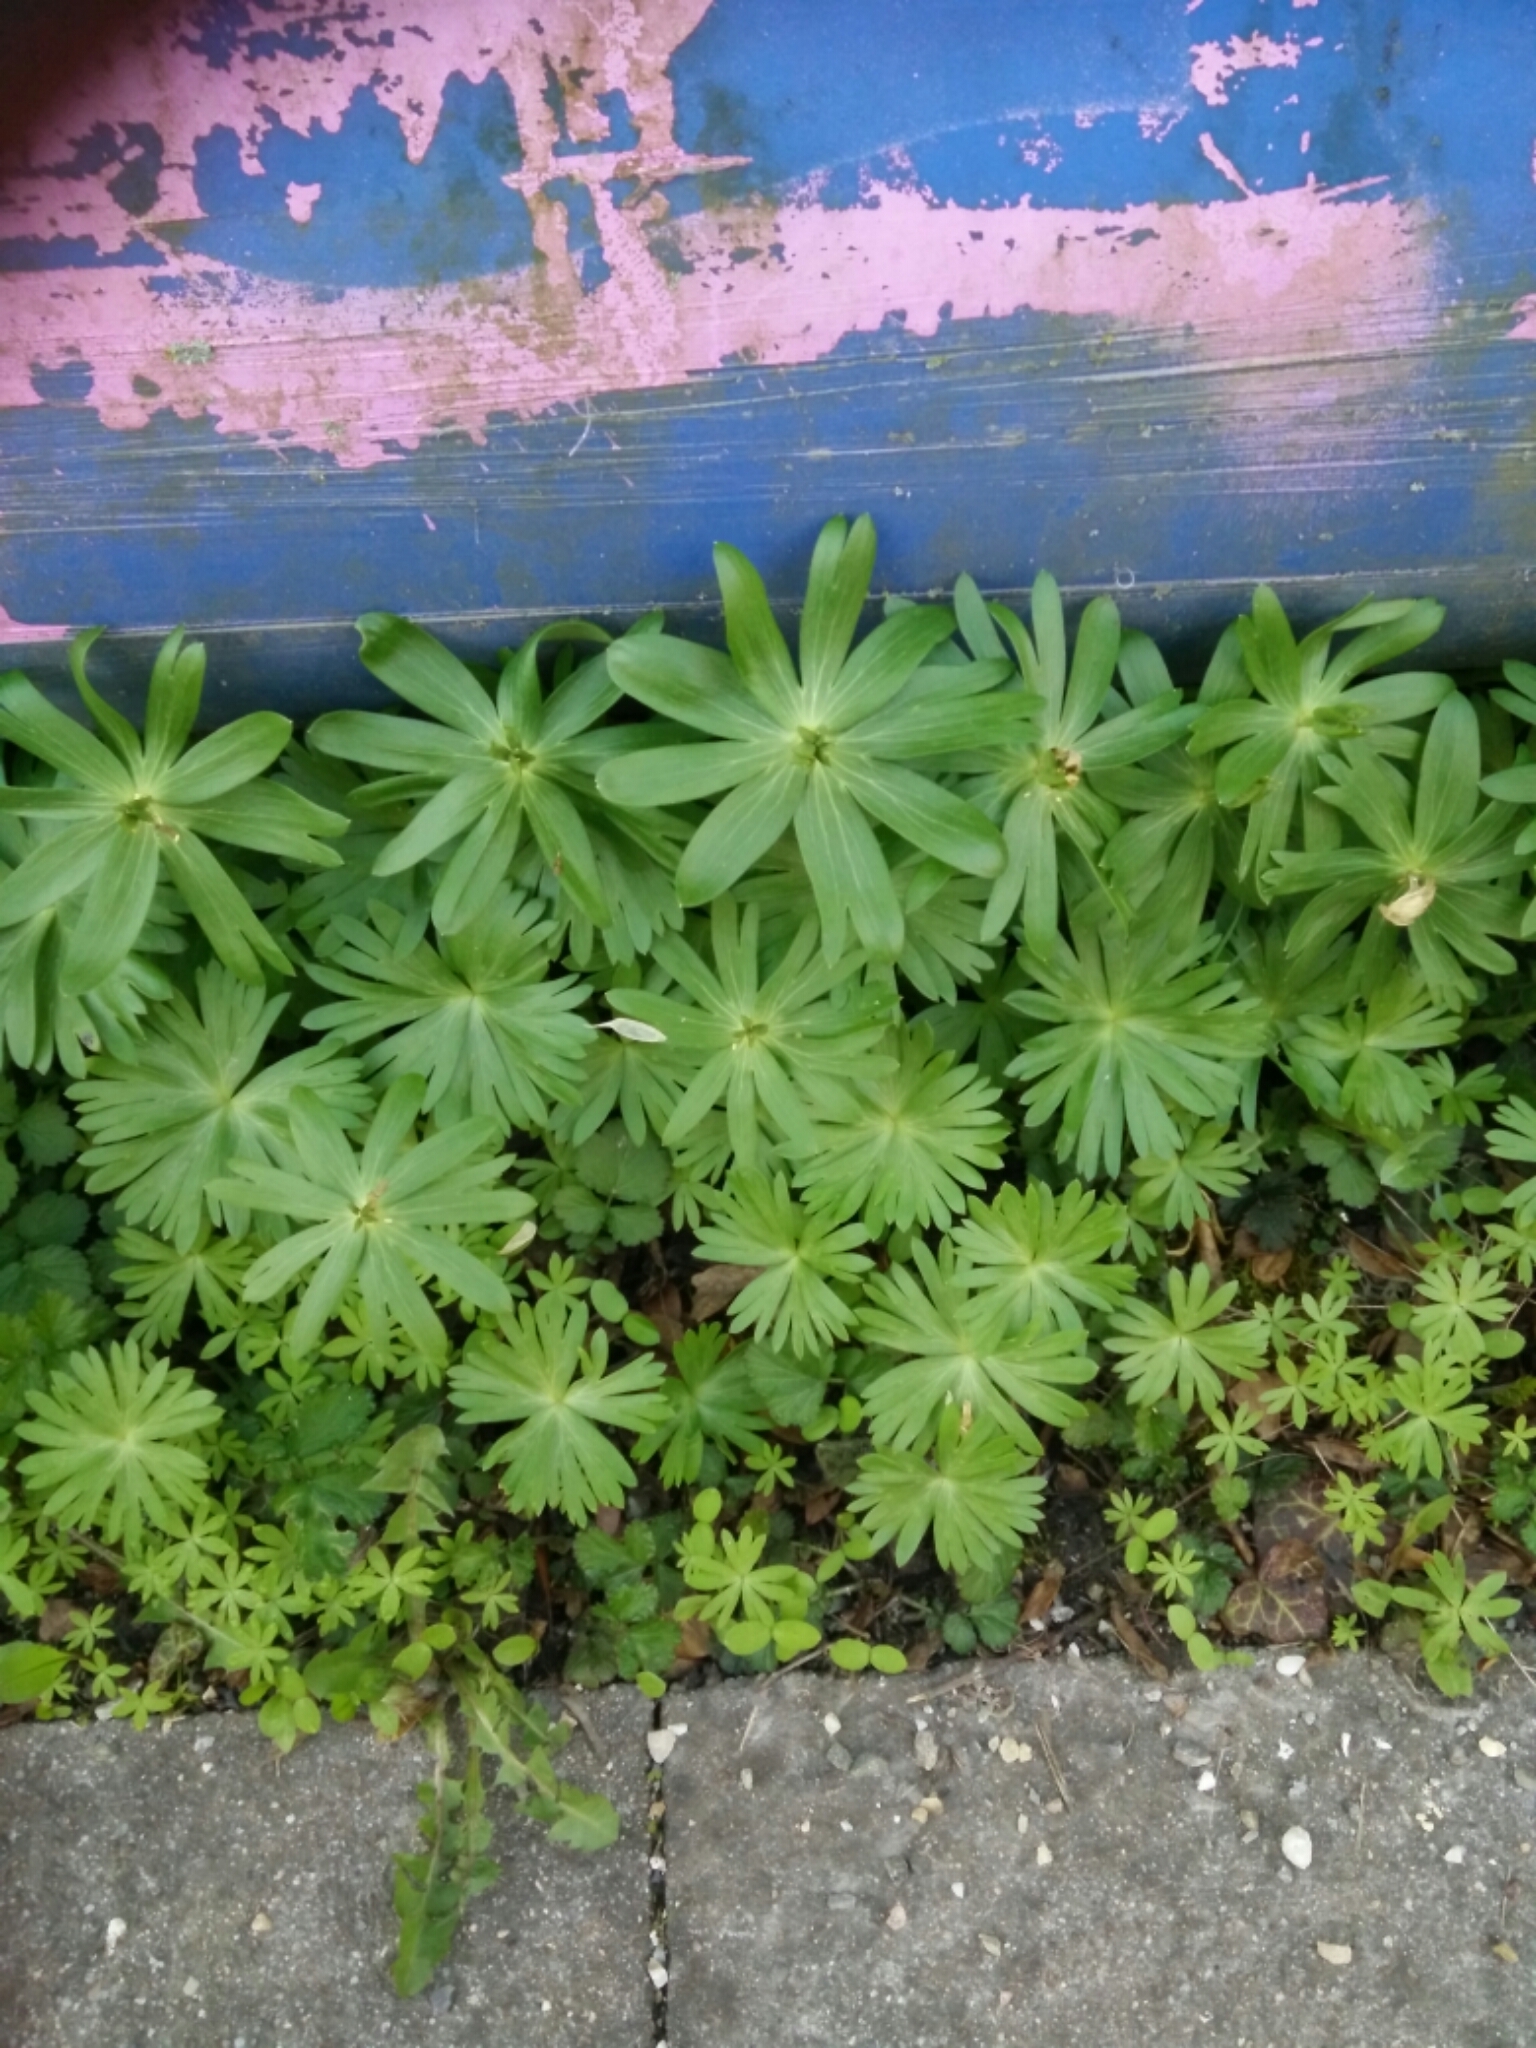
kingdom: Plantae
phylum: Tracheophyta
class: Magnoliopsida
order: Ranunculales
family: Ranunculaceae
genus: Eranthis
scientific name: Eranthis hyemalis
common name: Winter aconite
